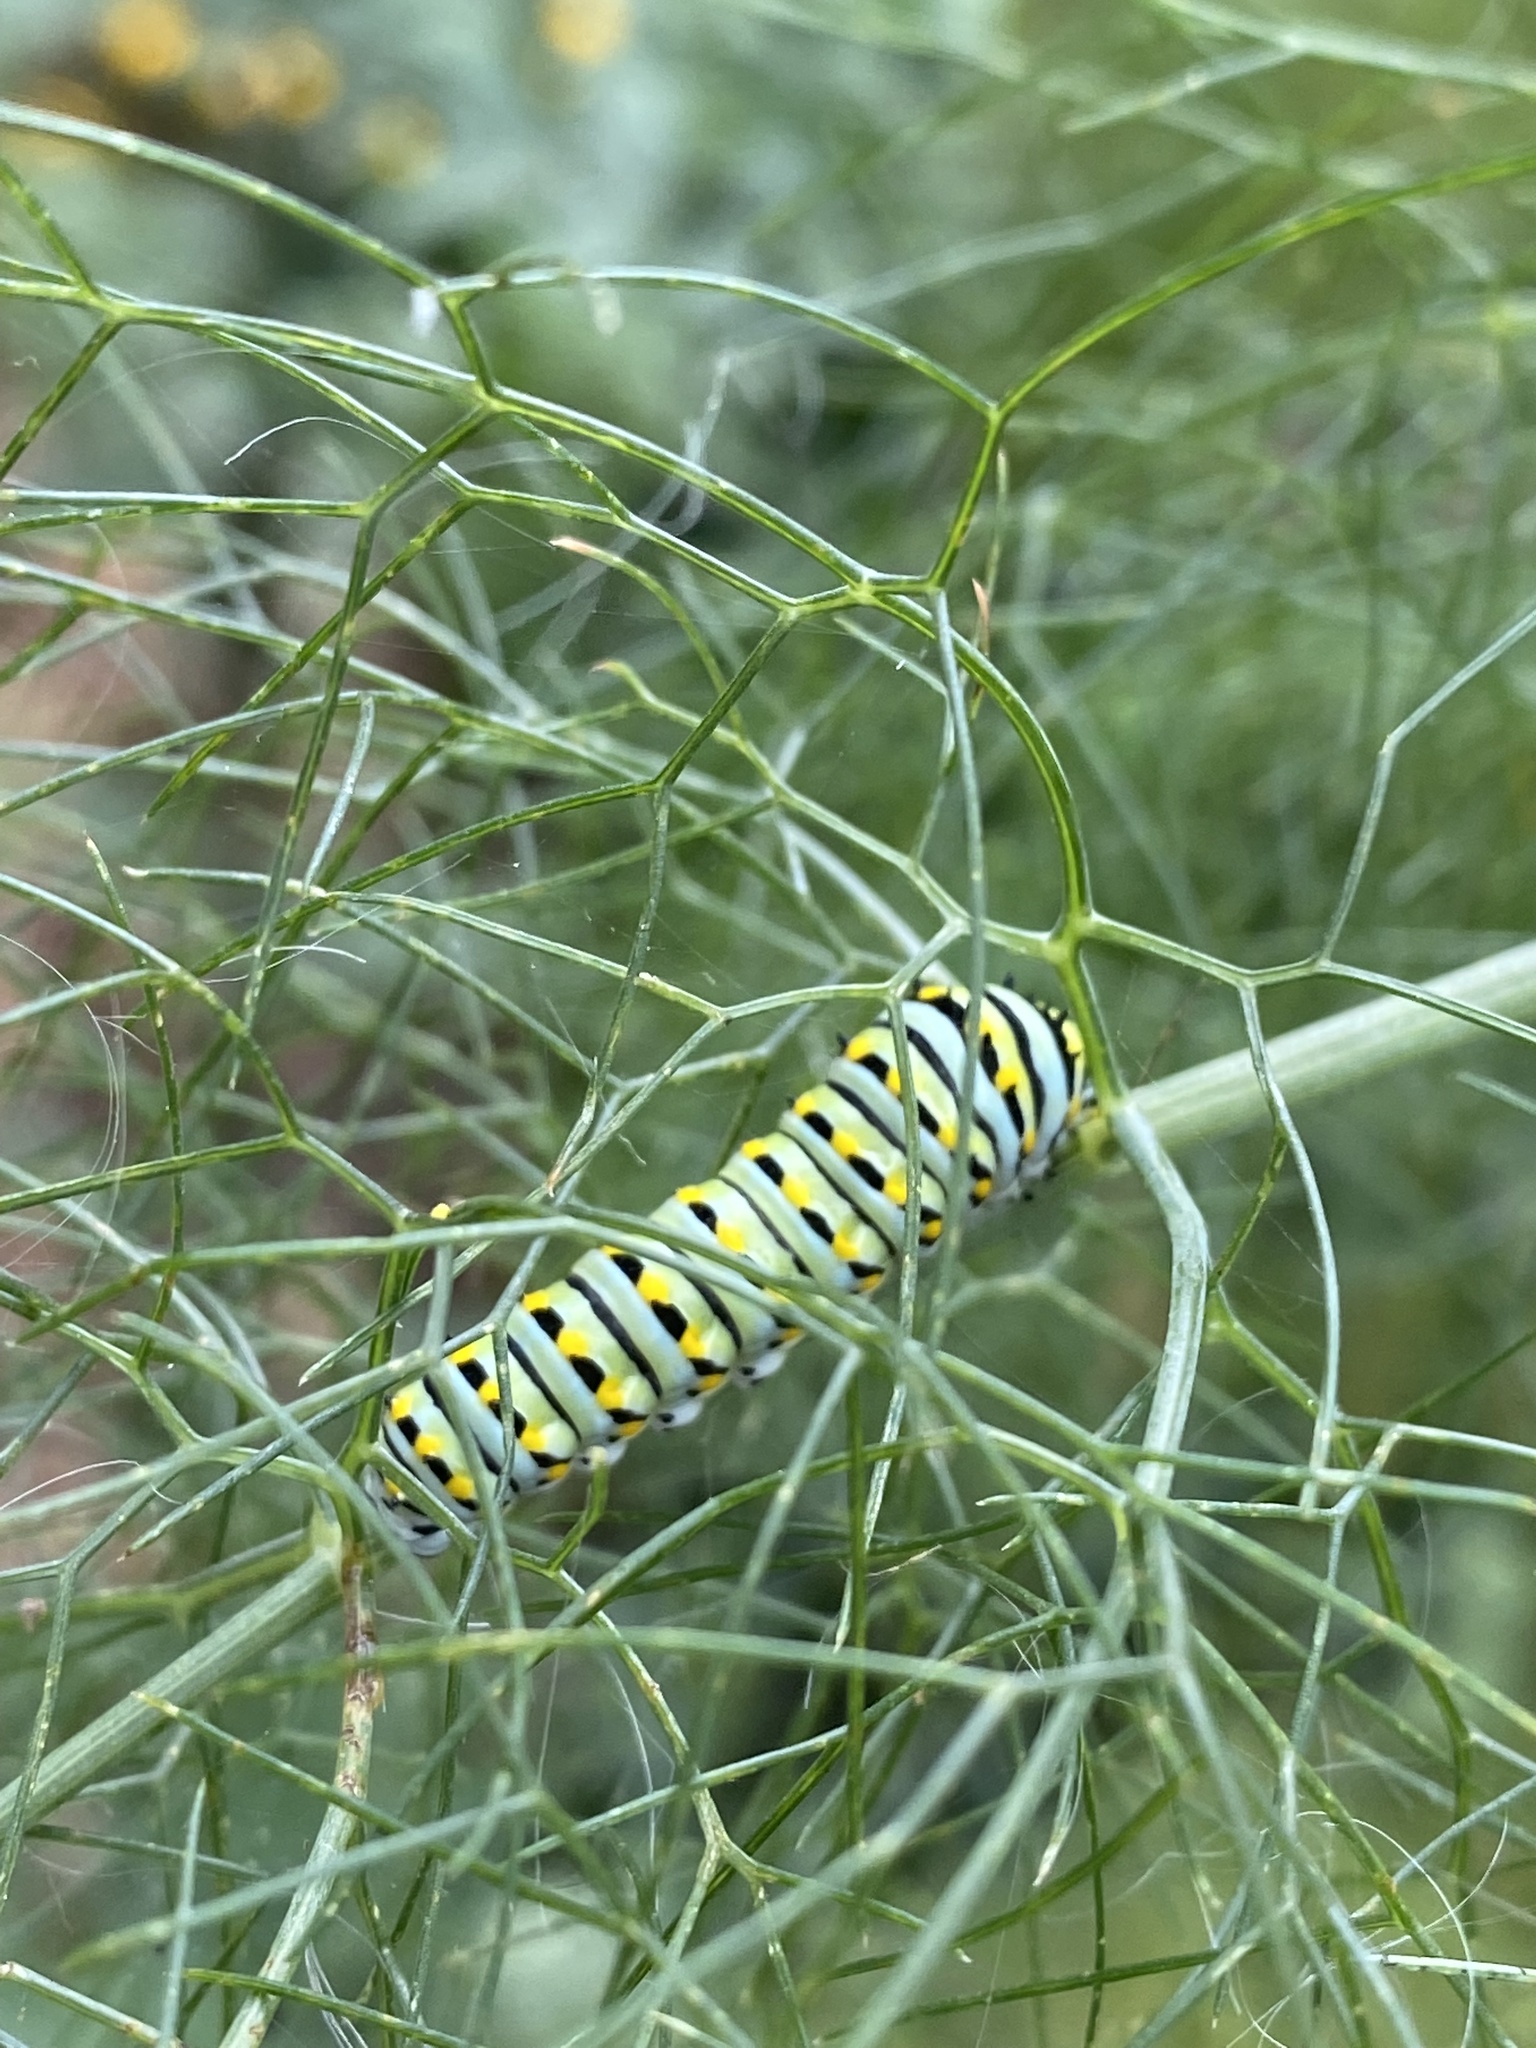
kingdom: Animalia
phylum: Arthropoda
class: Insecta
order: Lepidoptera
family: Papilionidae
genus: Papilio
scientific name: Papilio polyxenes
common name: Black swallowtail
